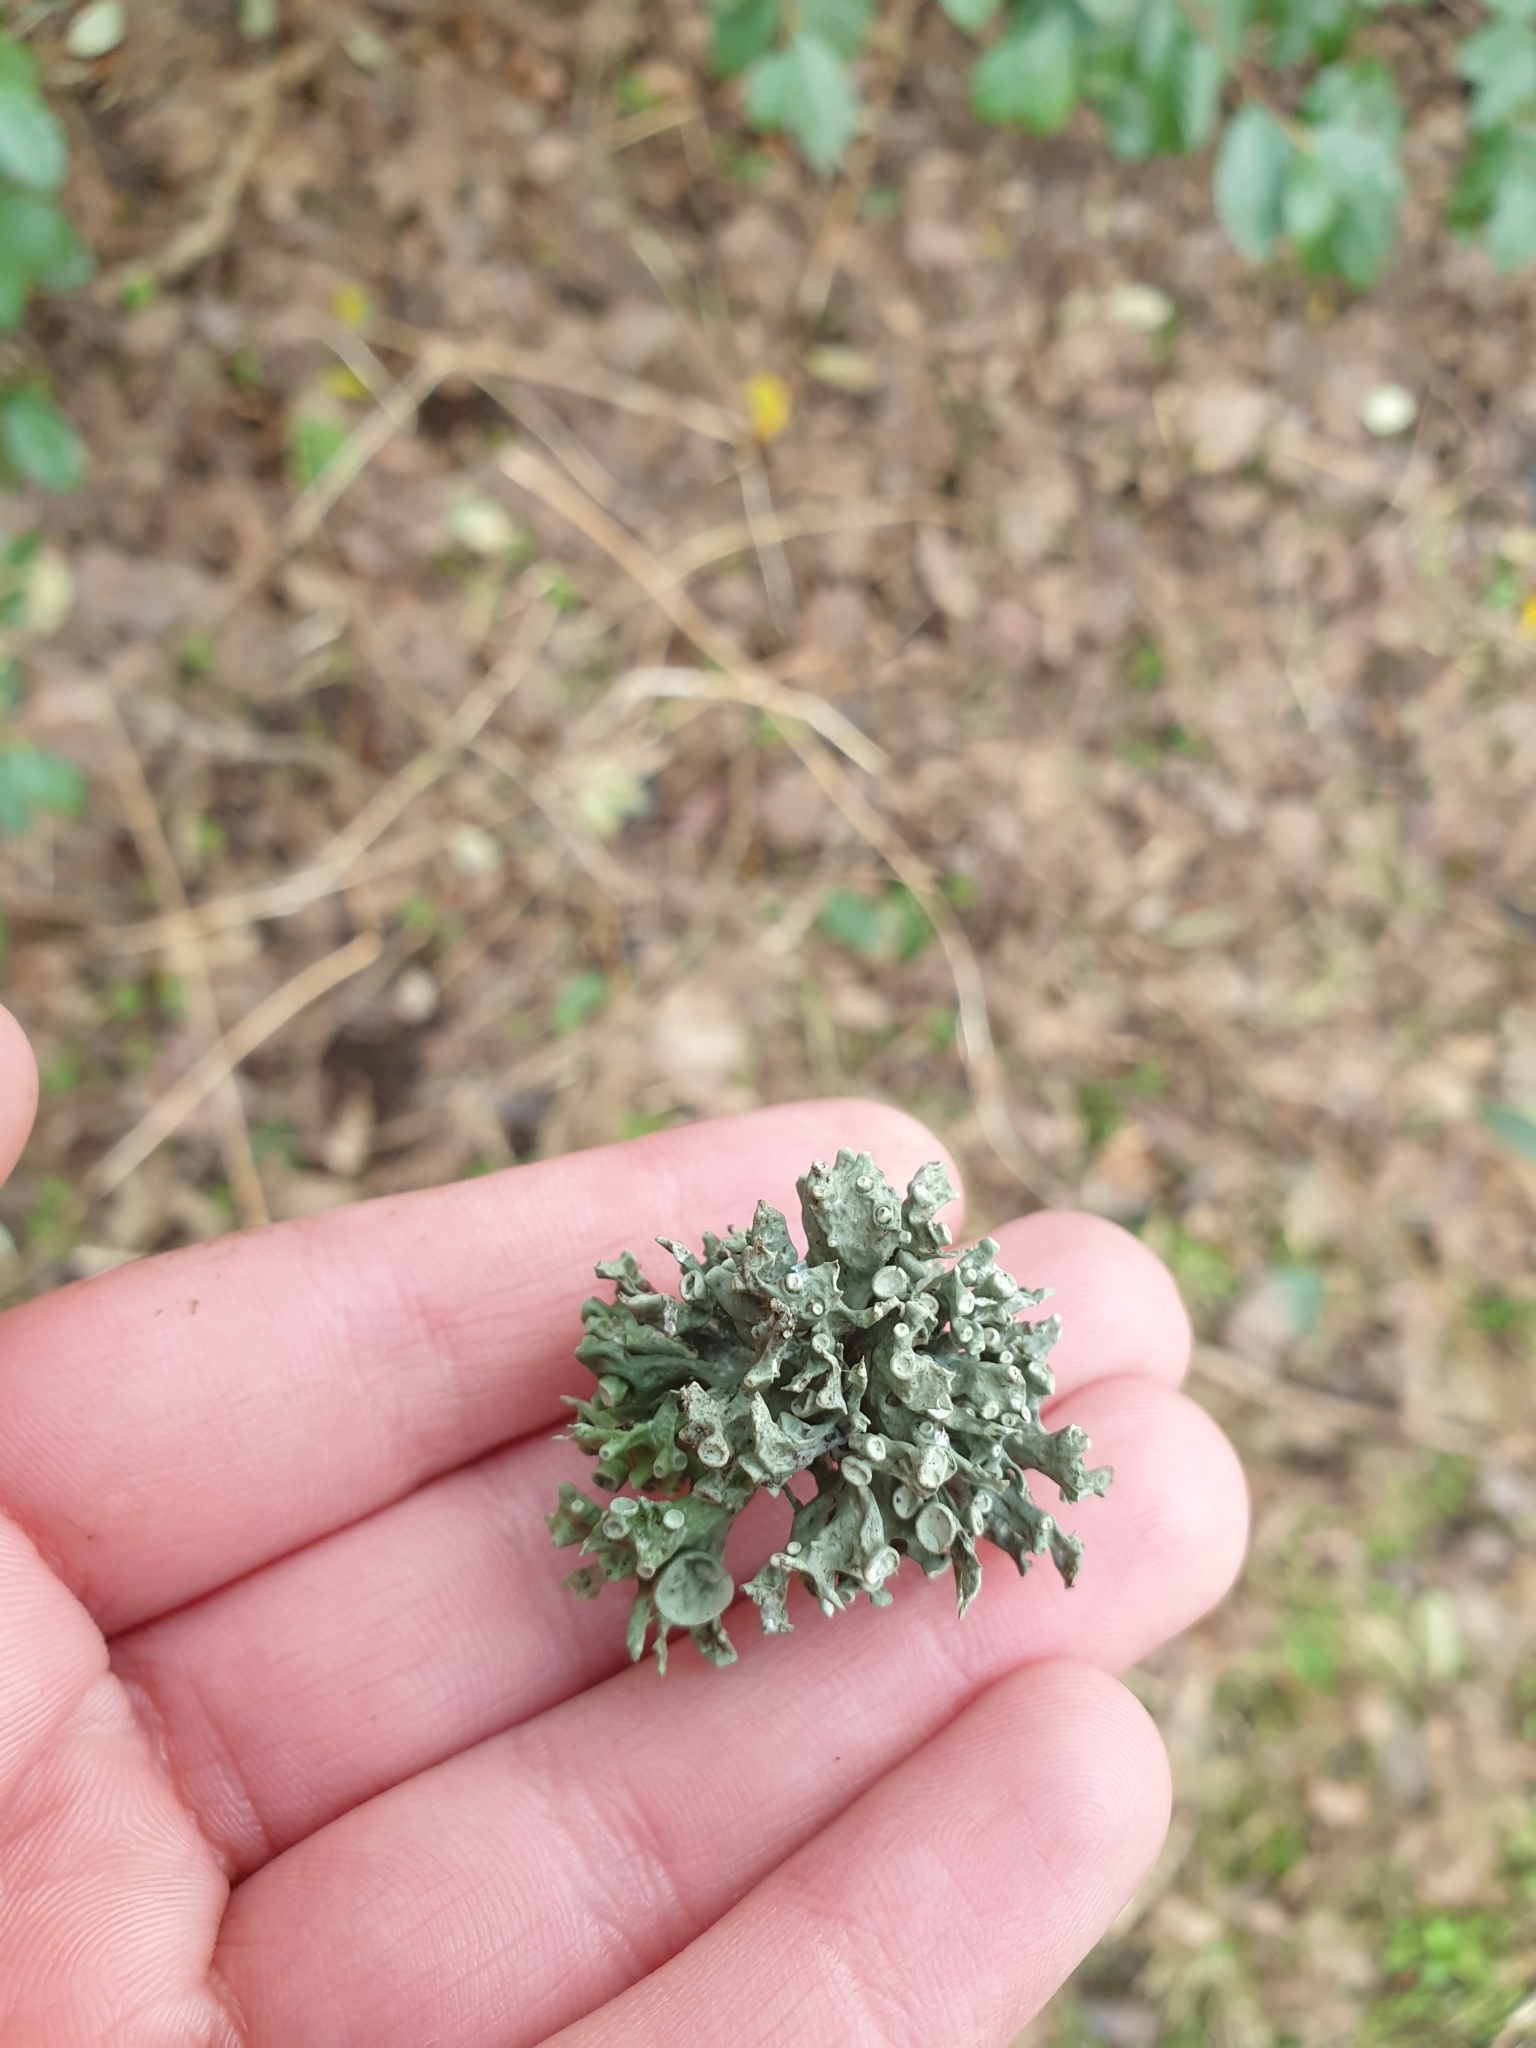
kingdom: Fungi
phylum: Ascomycota
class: Lecanoromycetes
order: Lecanorales
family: Ramalinaceae
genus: Ramalina
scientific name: Ramalina fastigiata
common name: Dotted ribbon lichen
